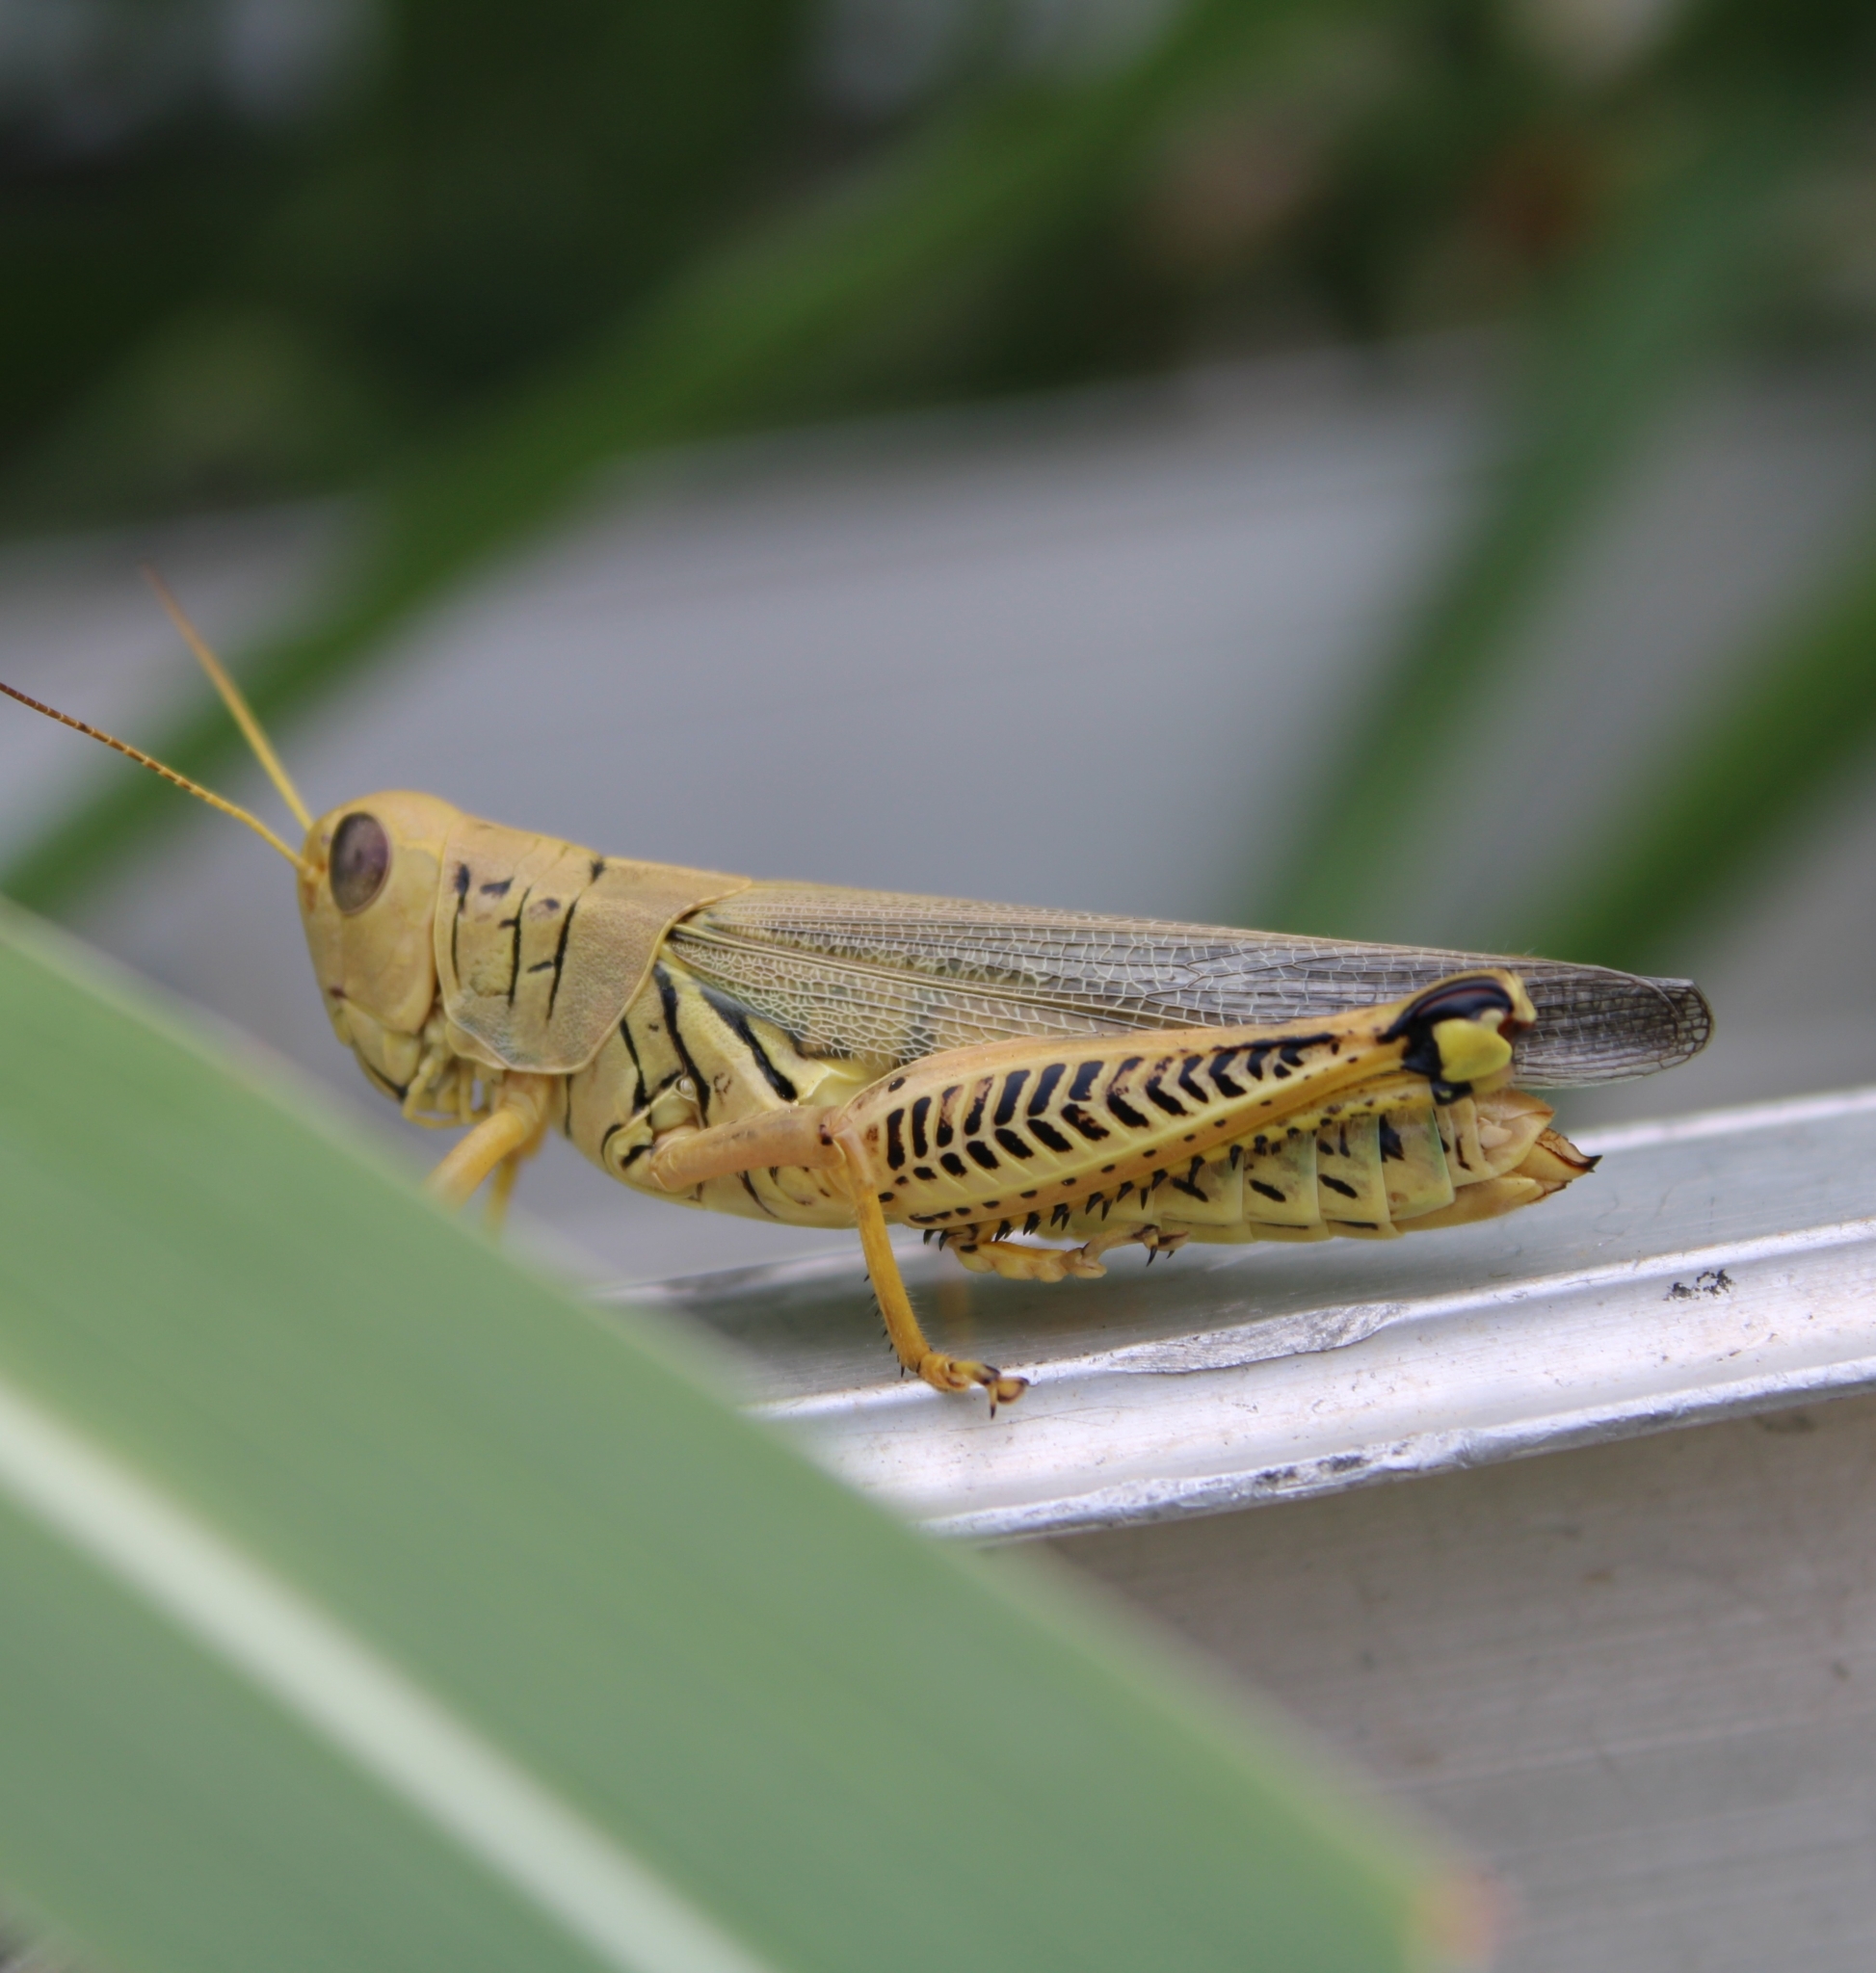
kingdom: Animalia
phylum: Arthropoda
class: Insecta
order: Orthoptera
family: Acrididae
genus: Melanoplus
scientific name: Melanoplus differentialis
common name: Differential grasshopper
